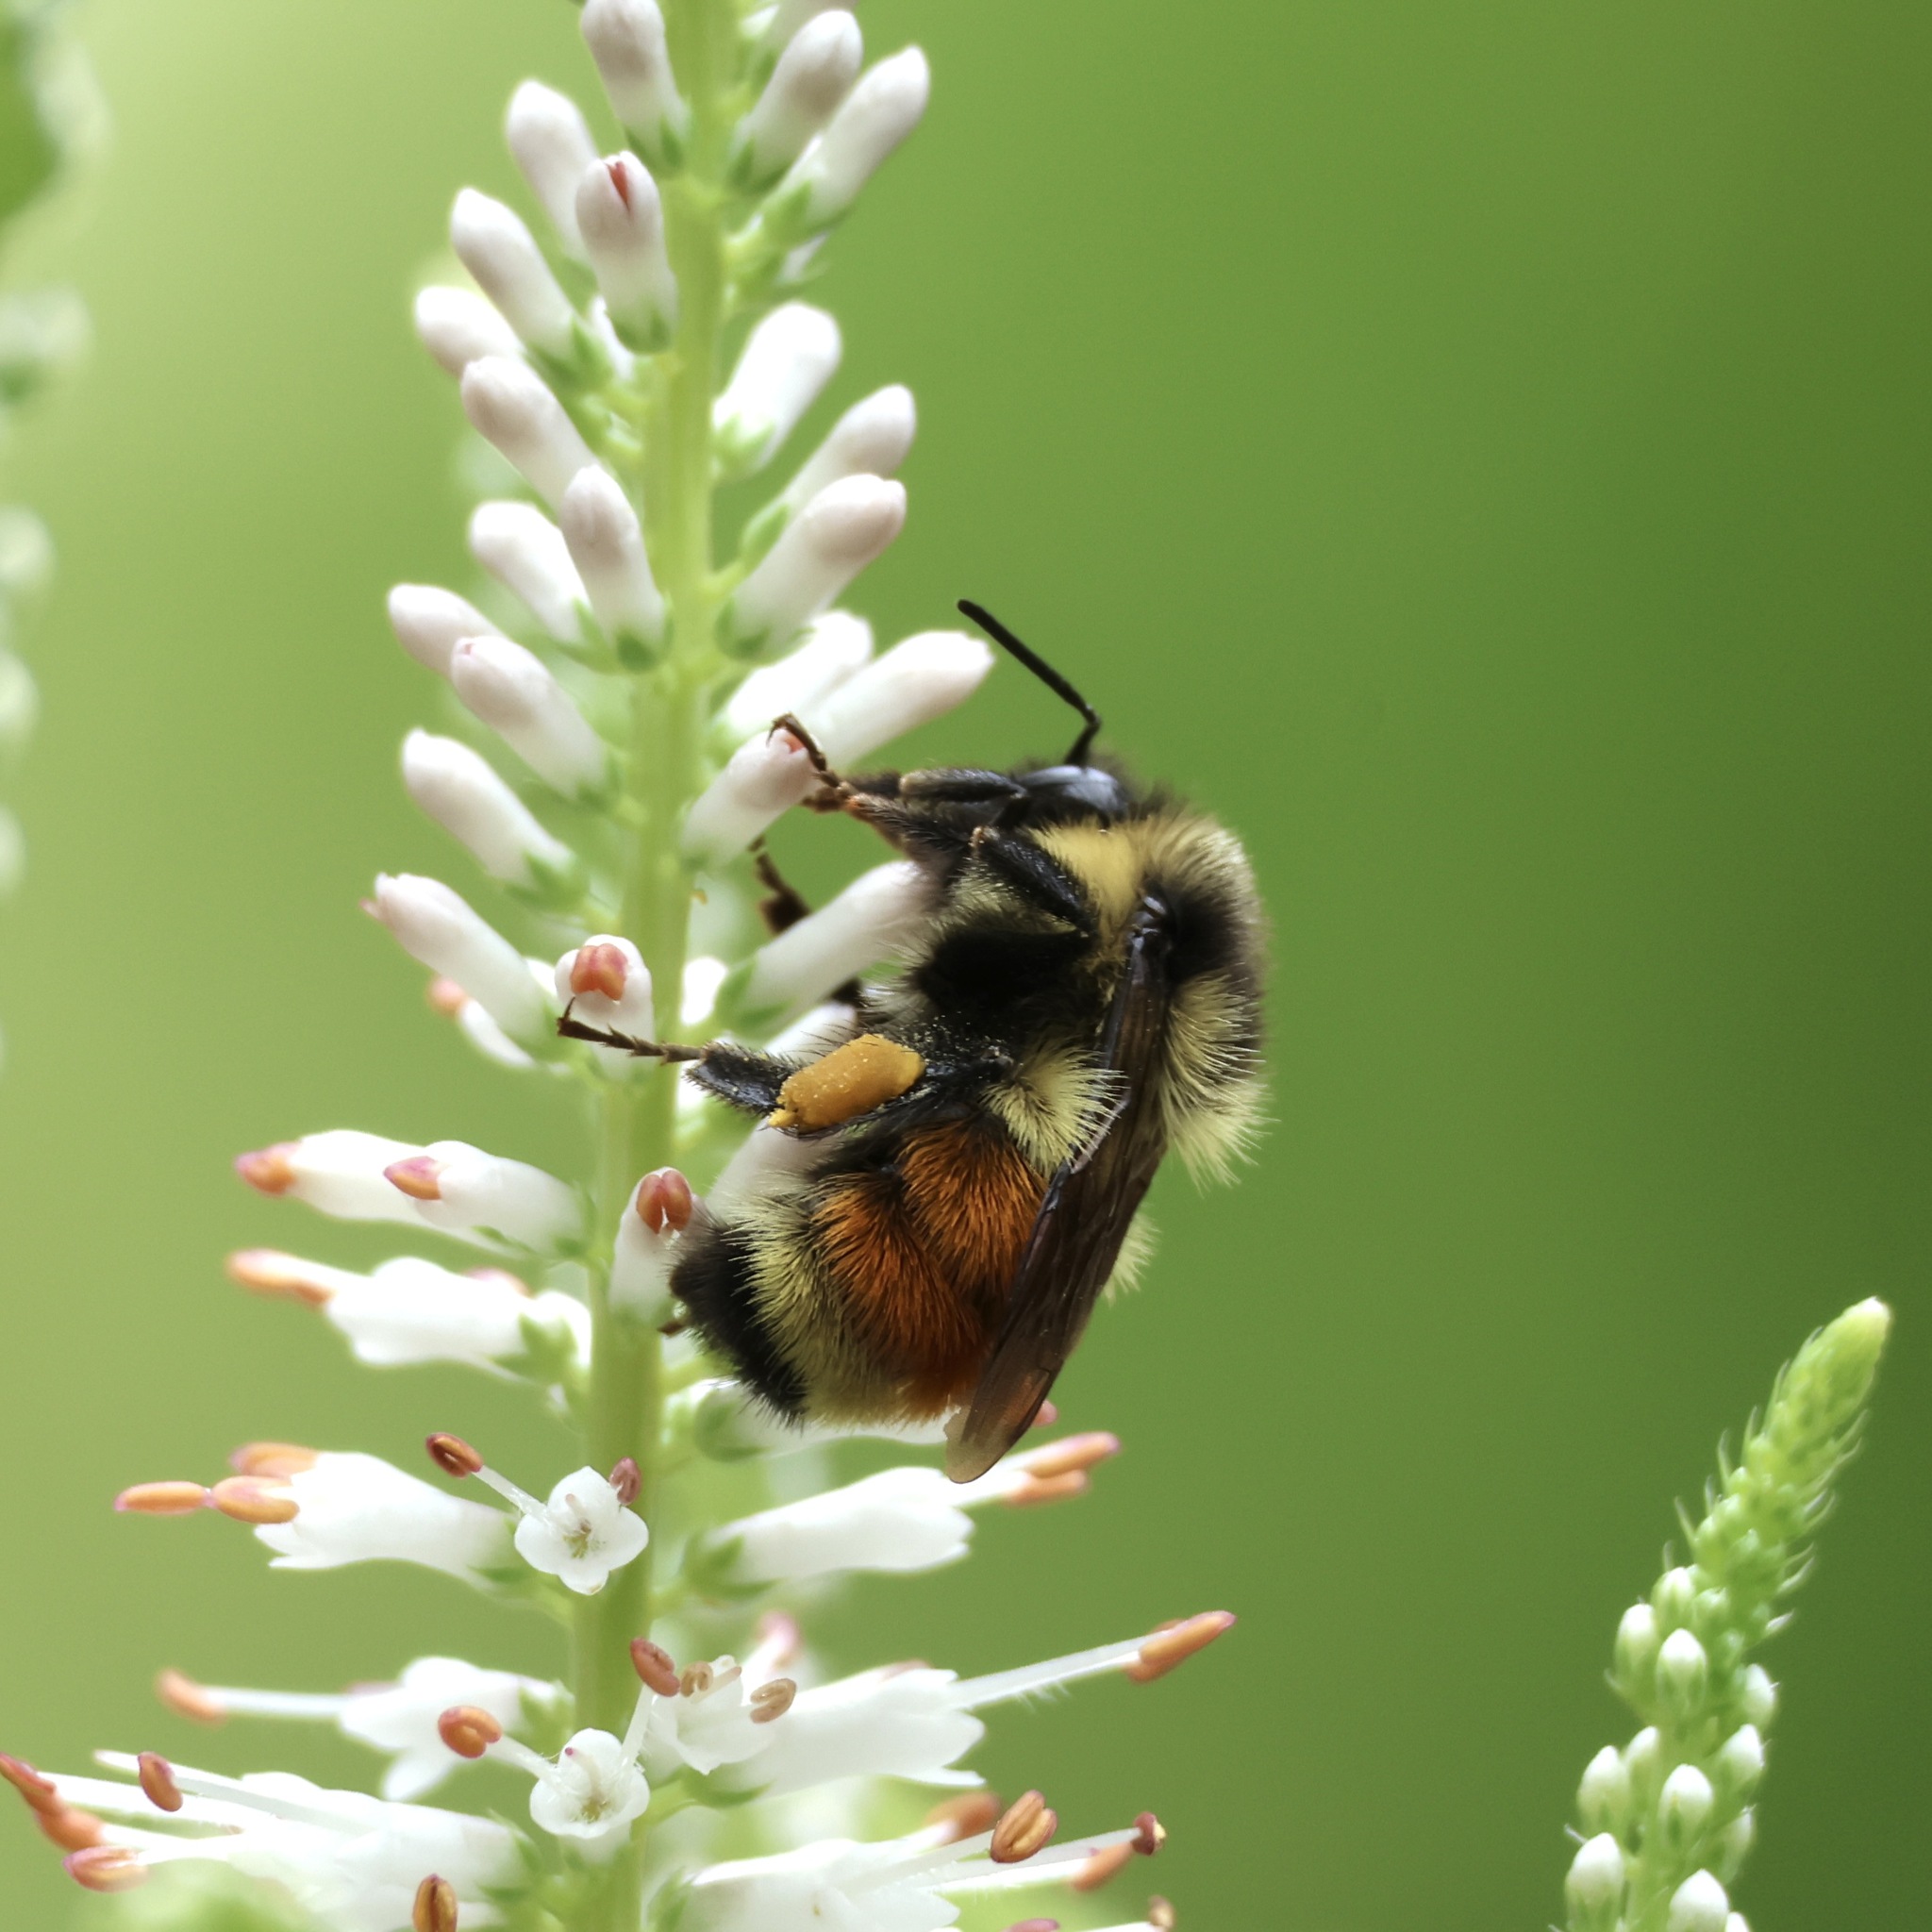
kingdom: Animalia
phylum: Arthropoda
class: Insecta
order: Hymenoptera
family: Apidae
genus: Bombus
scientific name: Bombus ternarius
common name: Tri-colored bumble bee
